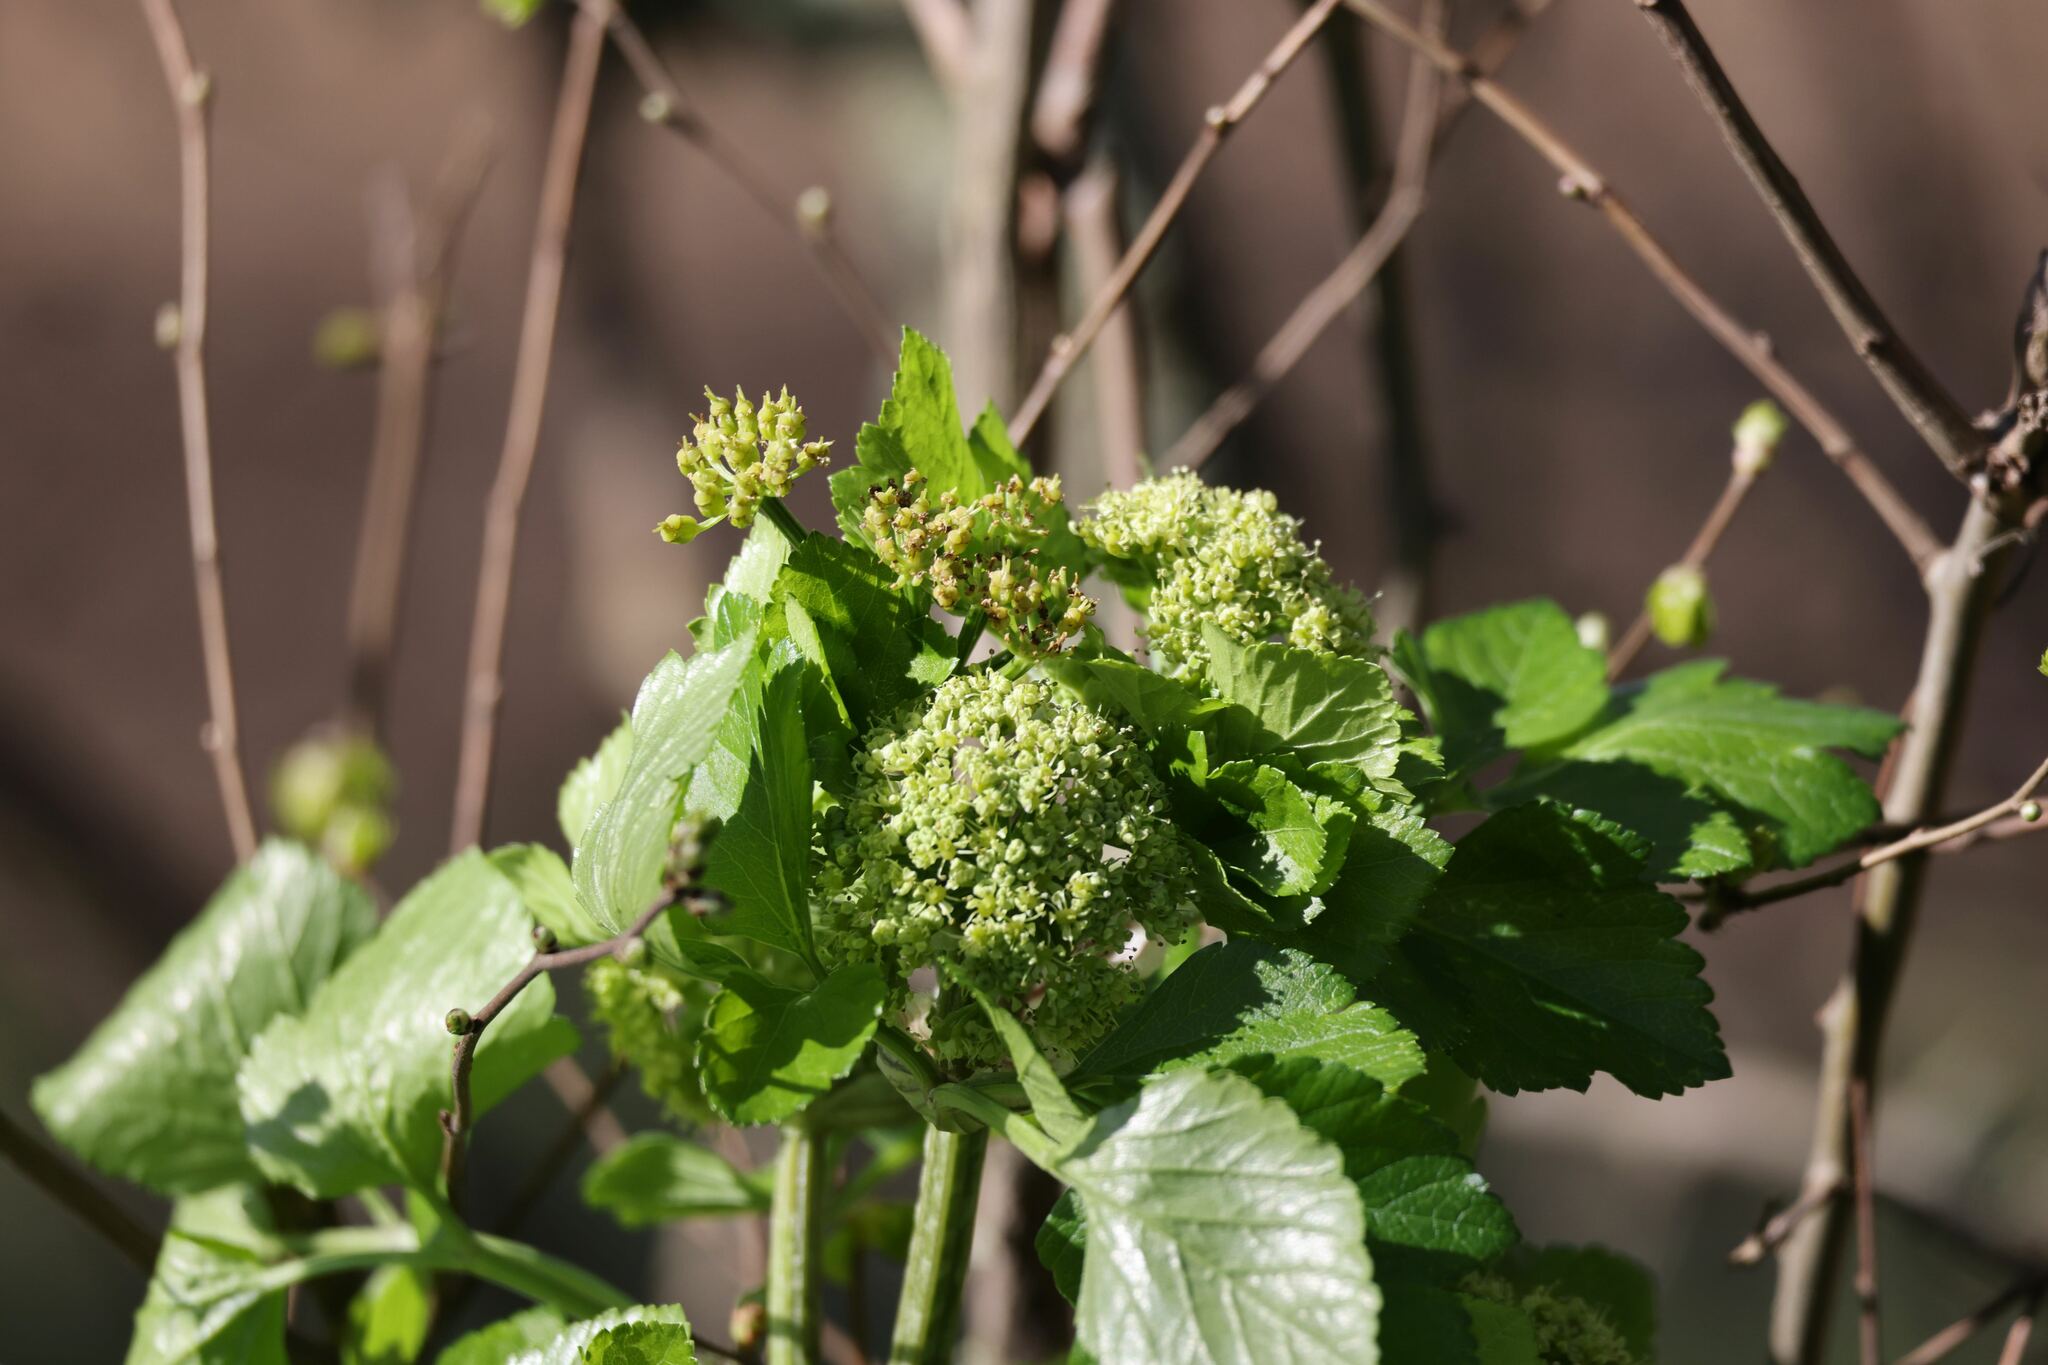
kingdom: Plantae
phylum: Tracheophyta
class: Magnoliopsida
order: Apiales
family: Apiaceae
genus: Smyrnium
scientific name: Smyrnium olusatrum
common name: Alexanders
